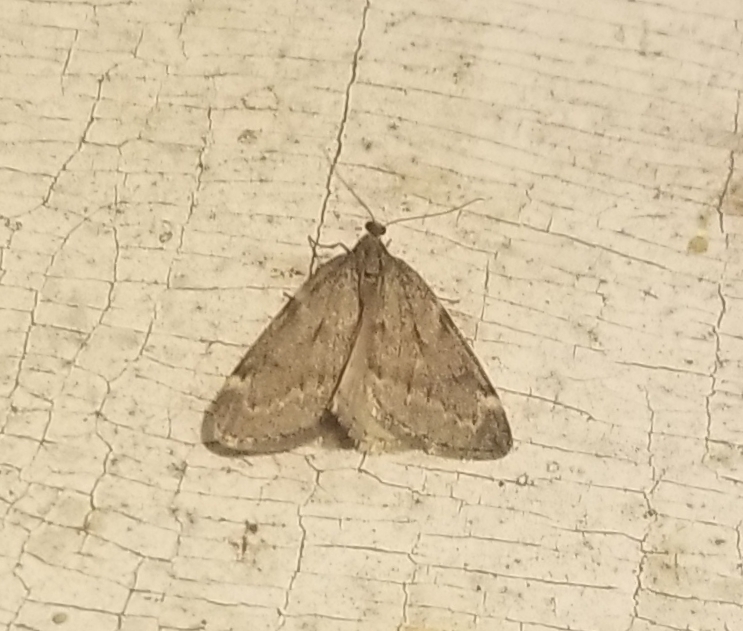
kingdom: Animalia
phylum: Arthropoda
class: Insecta
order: Lepidoptera
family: Geometridae
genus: Alsophila
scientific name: Alsophila pometaria
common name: Fall cankerworm
